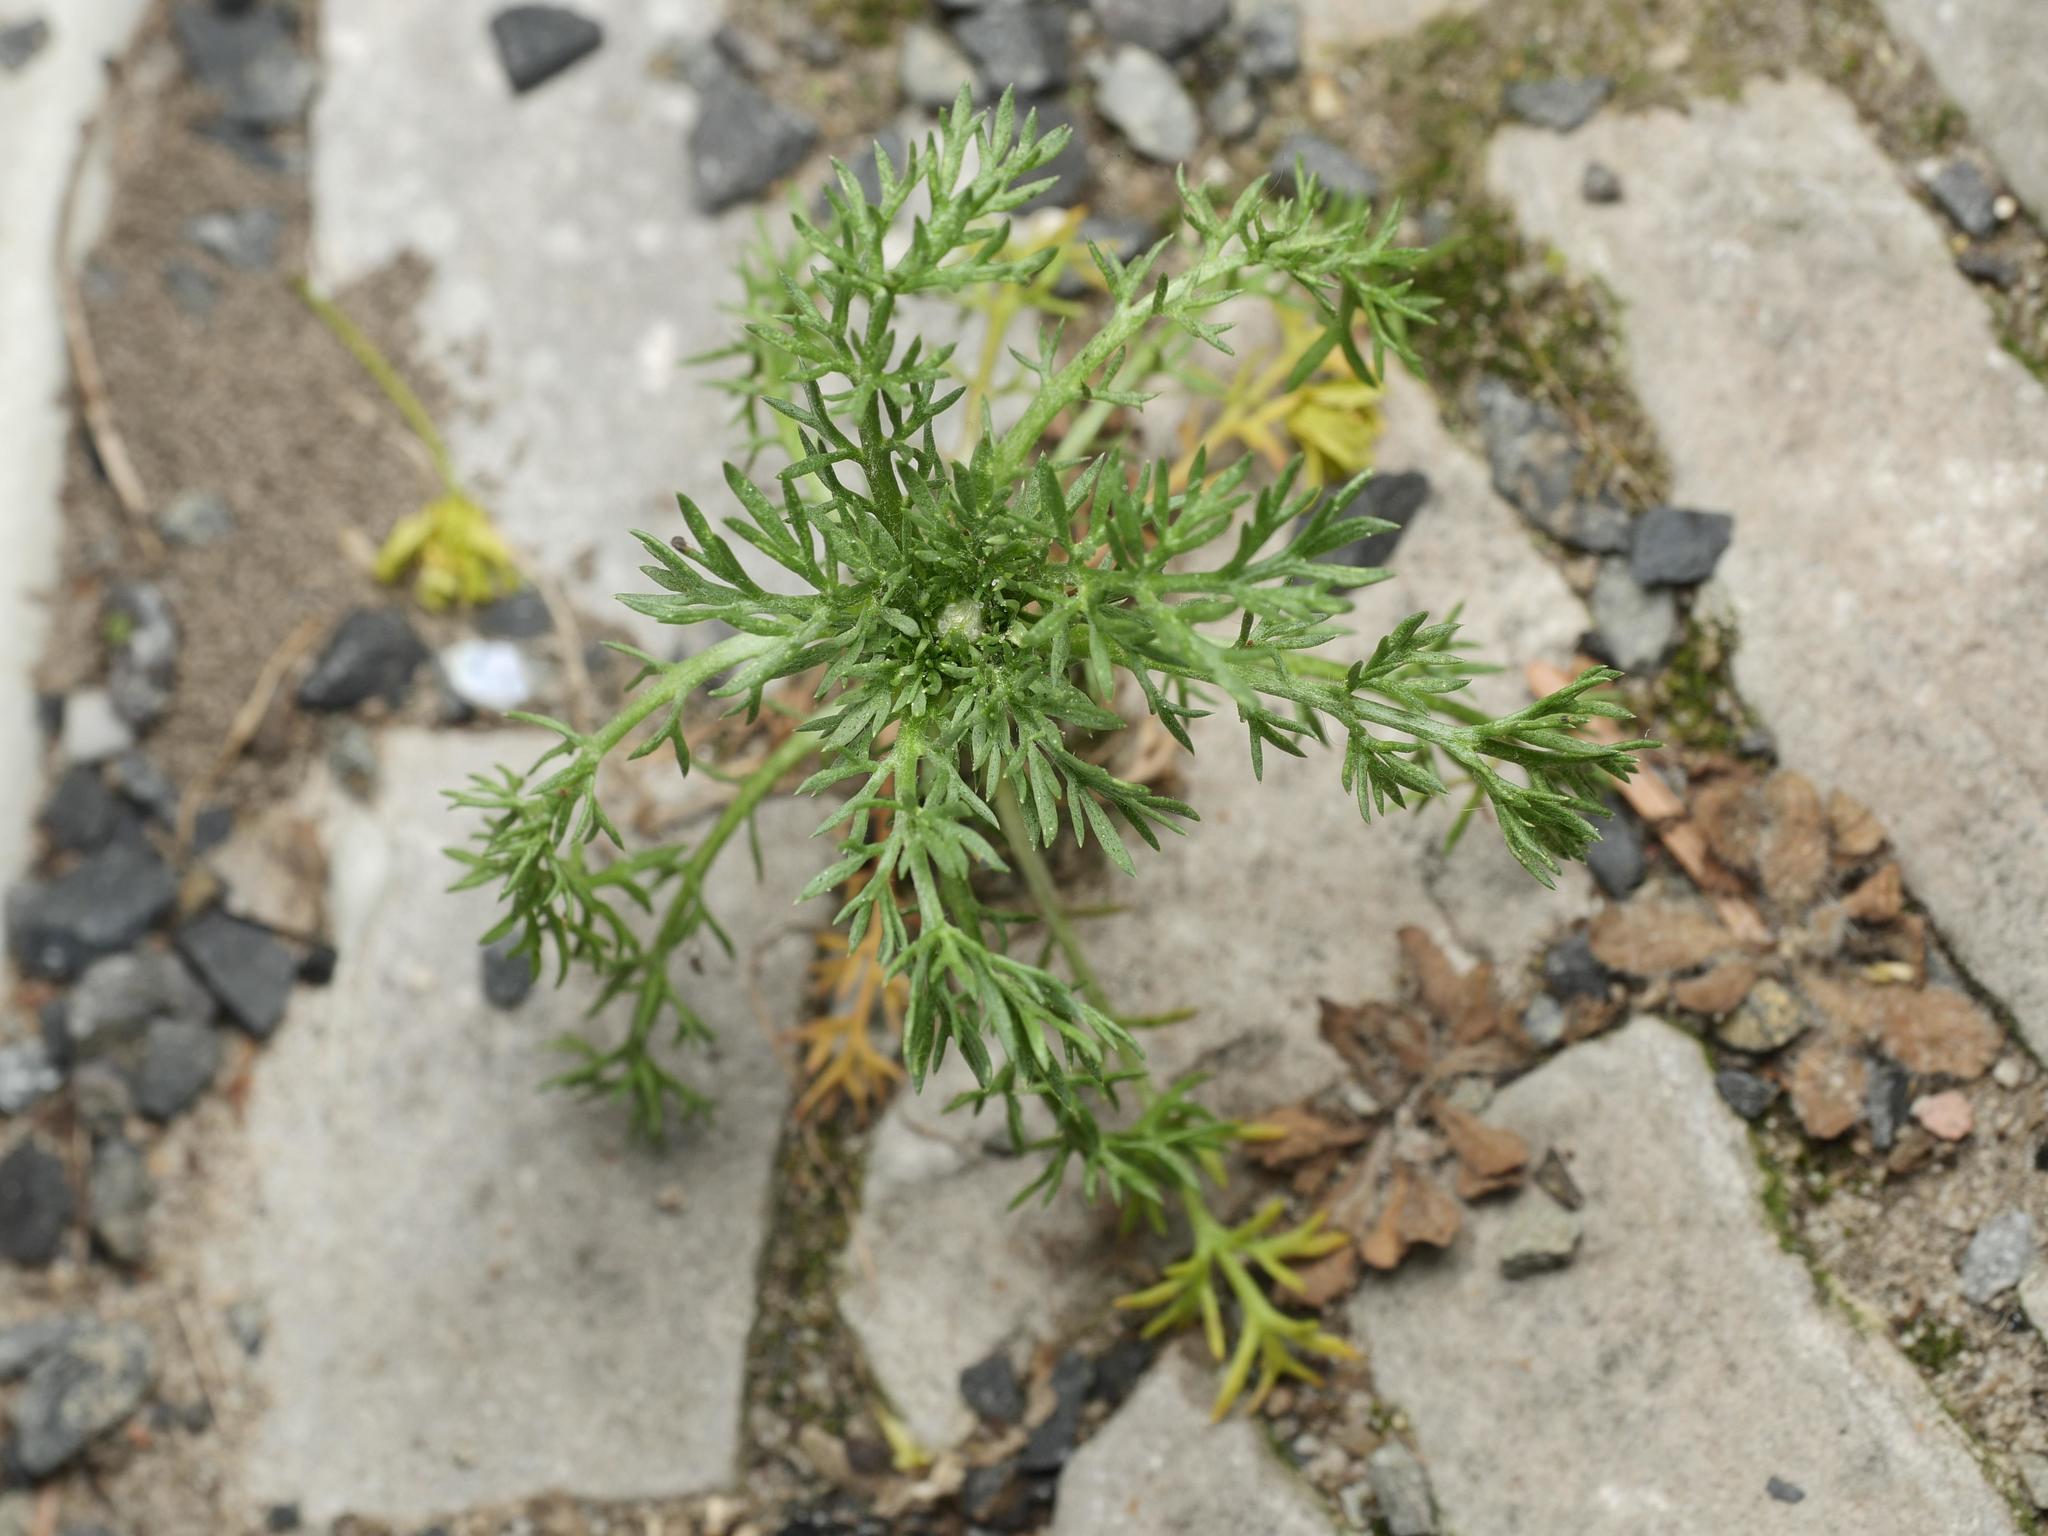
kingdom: Plantae
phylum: Tracheophyta
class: Magnoliopsida
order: Asterales
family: Asteraceae
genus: Matricaria
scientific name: Matricaria discoidea
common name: Disc mayweed
